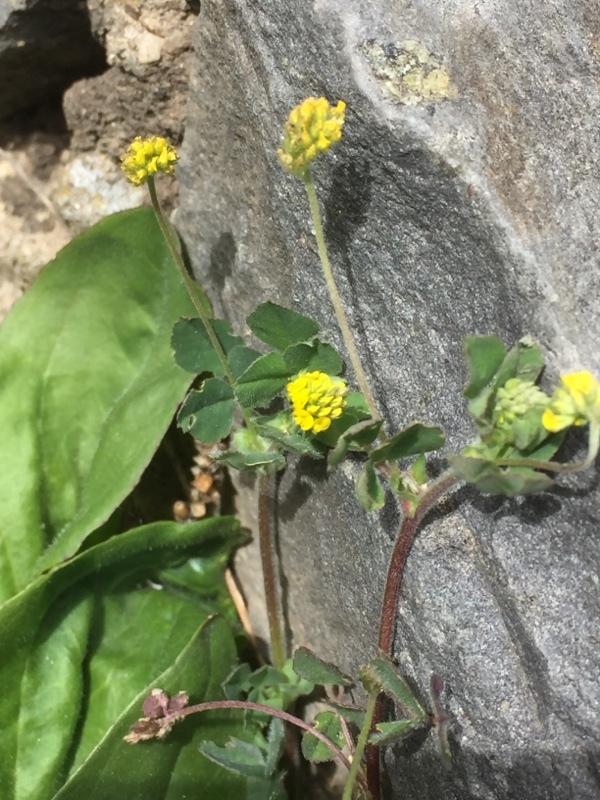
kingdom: Plantae
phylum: Tracheophyta
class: Magnoliopsida
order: Fabales
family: Fabaceae
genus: Medicago
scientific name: Medicago lupulina
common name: Black medick
